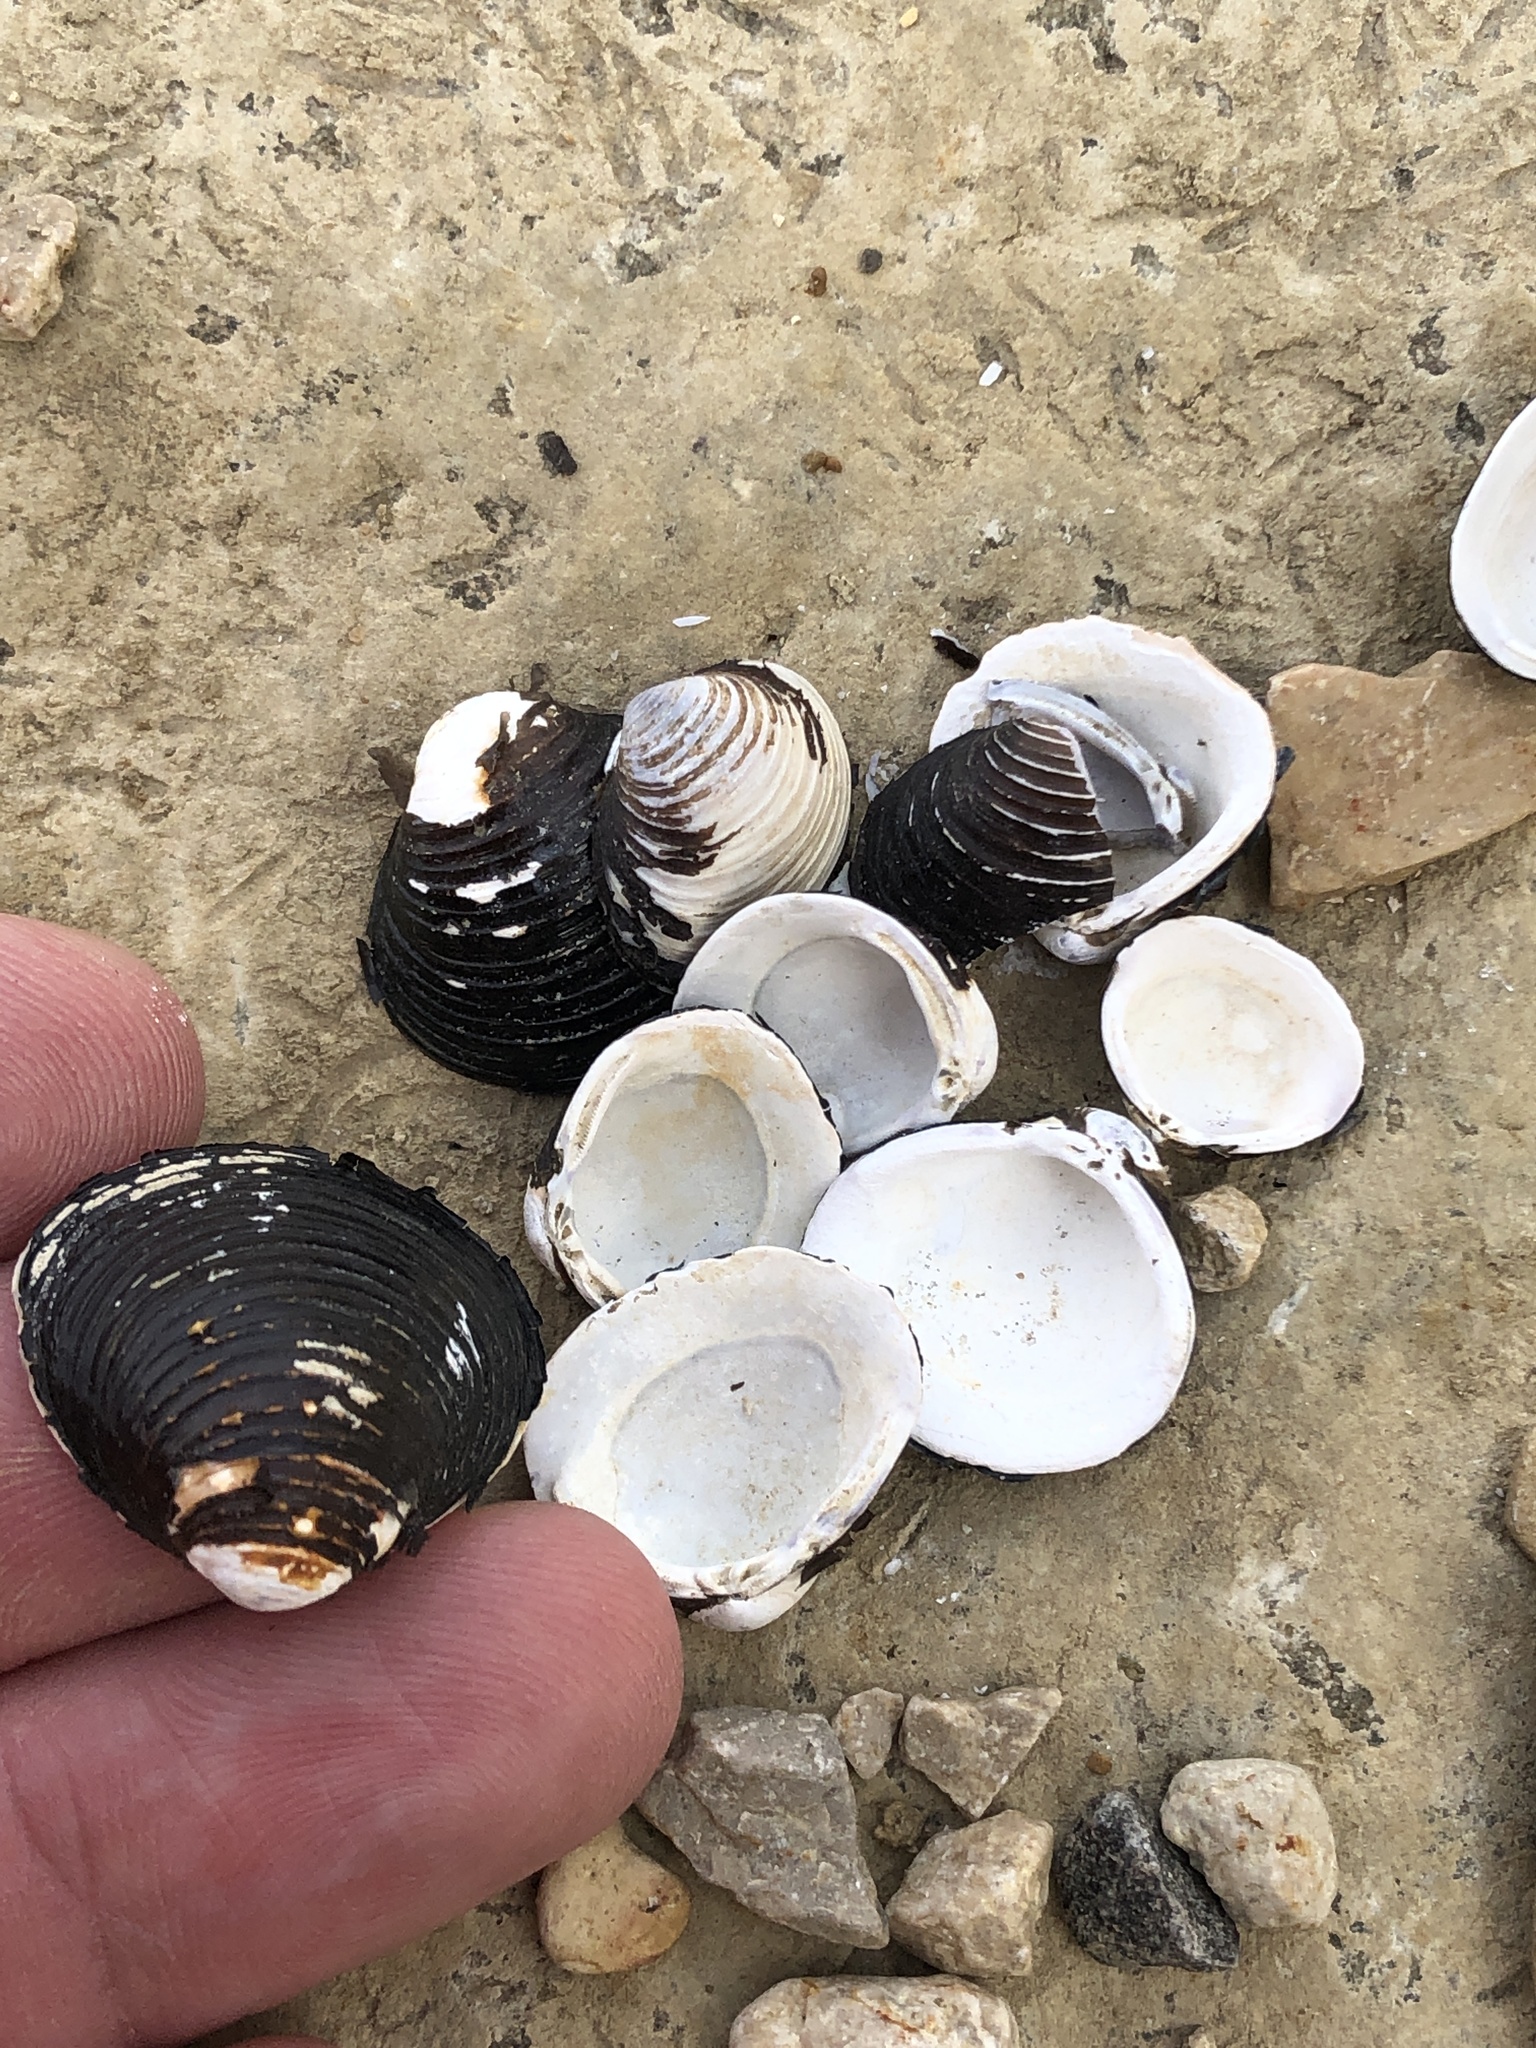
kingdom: Animalia
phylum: Mollusca
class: Bivalvia
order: Venerida
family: Cyrenidae
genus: Corbicula
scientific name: Corbicula fluminea
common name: Asian clam
